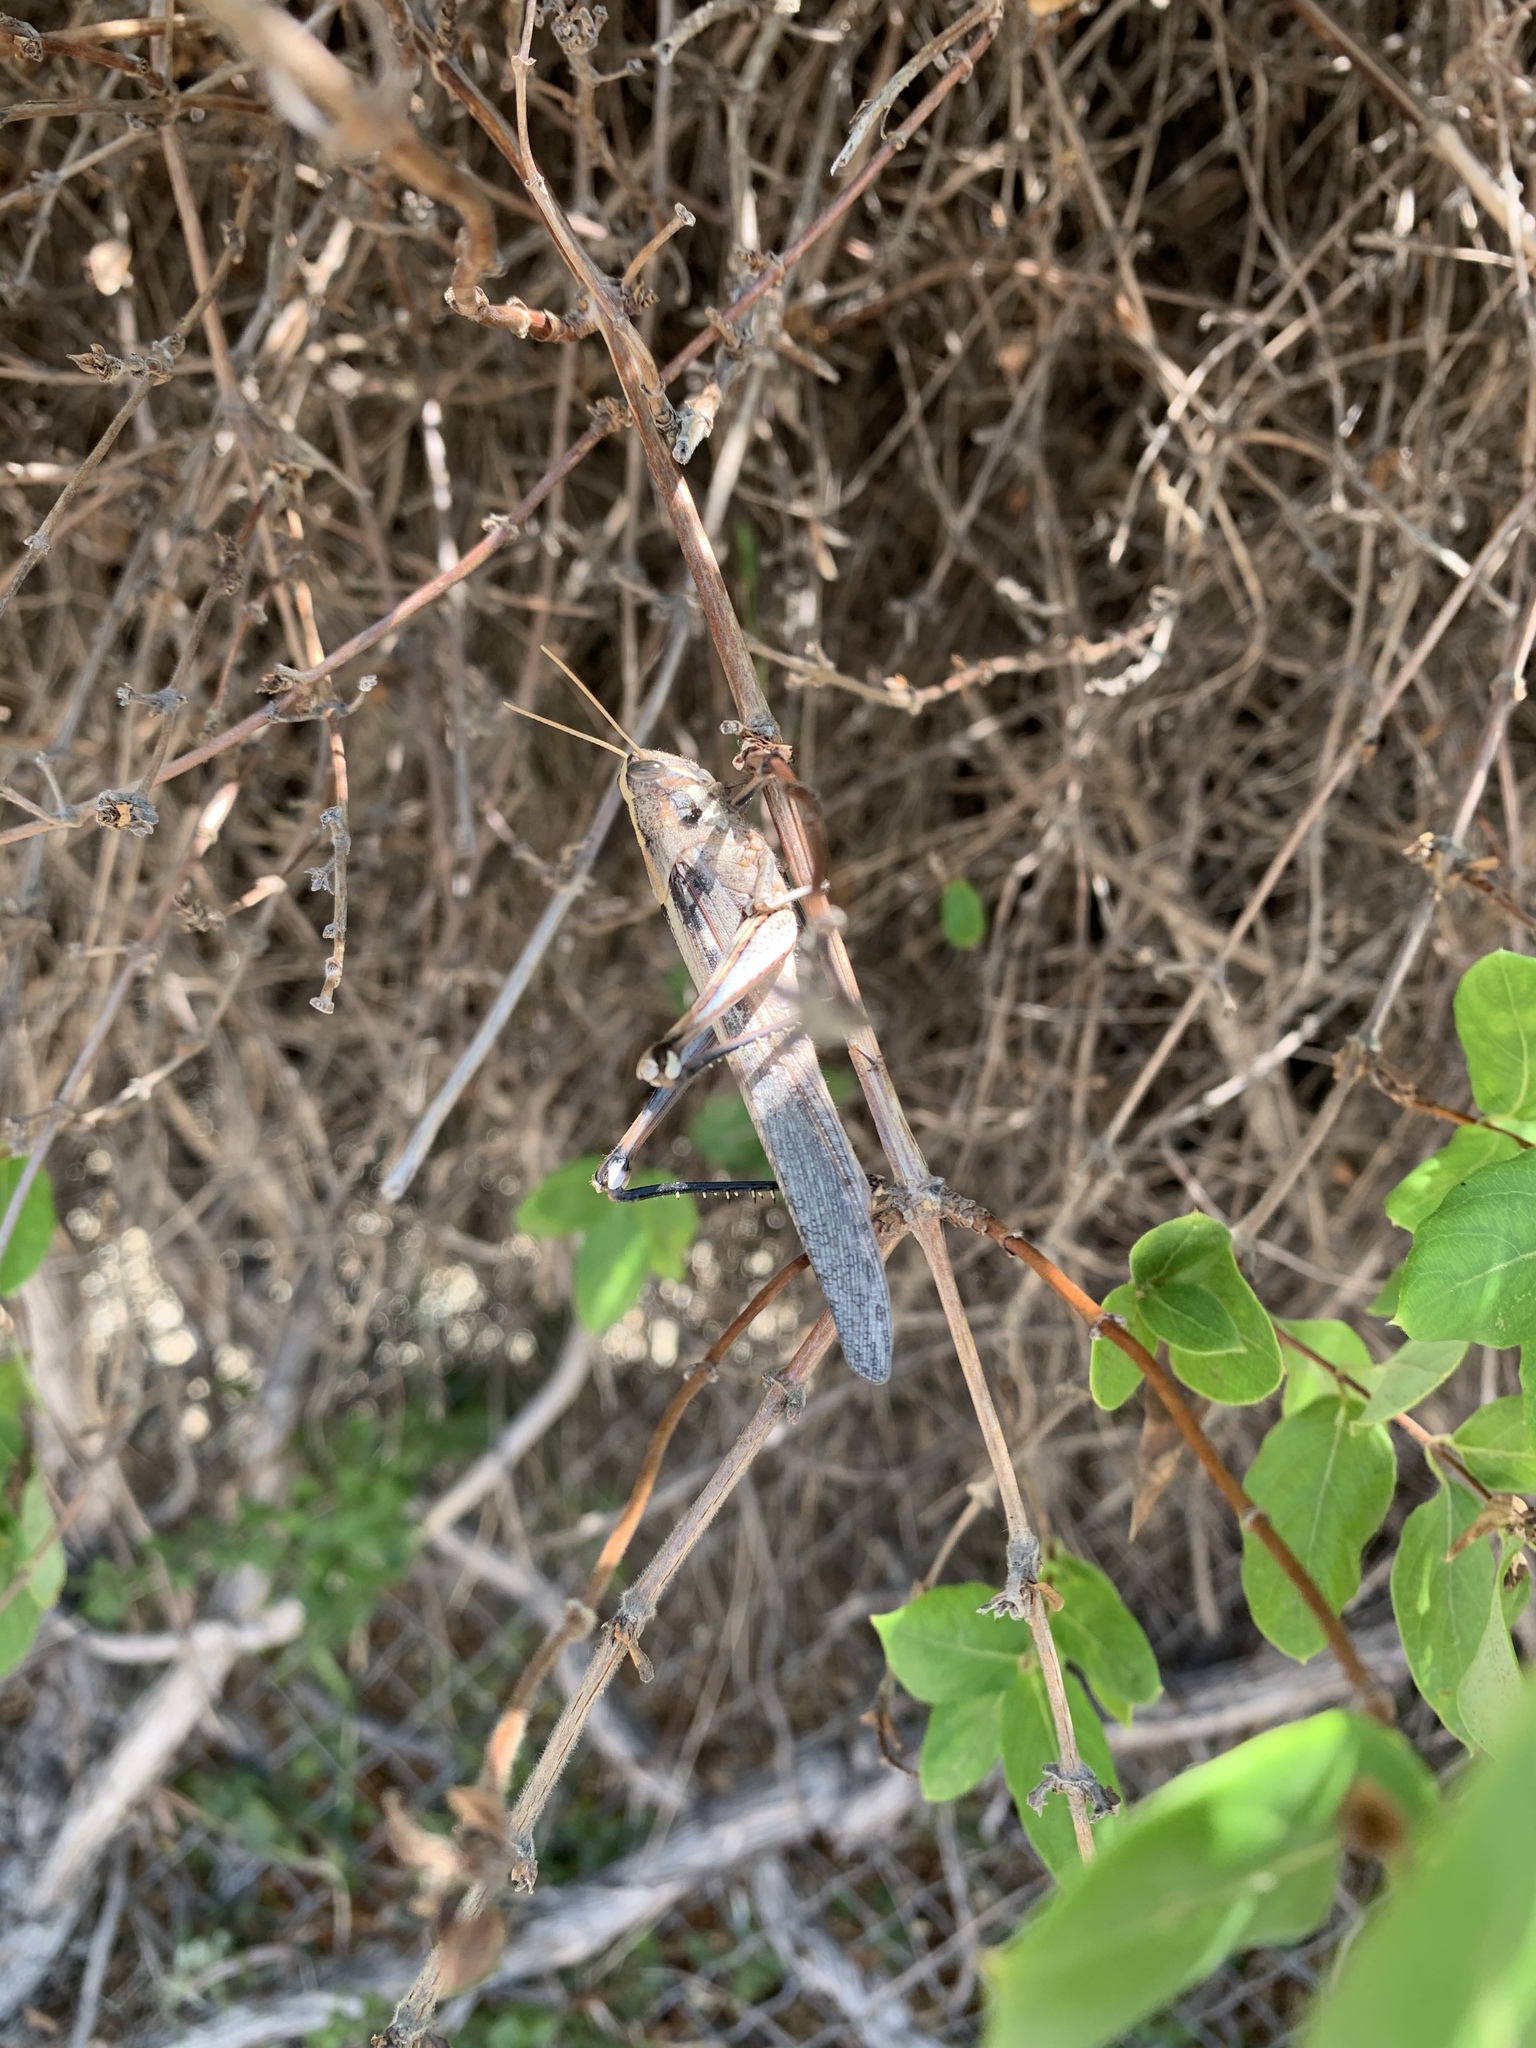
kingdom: Animalia
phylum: Arthropoda
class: Insecta
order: Orthoptera
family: Acrididae
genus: Schistocerca
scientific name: Schistocerca nitens
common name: Vagrant grasshopper
